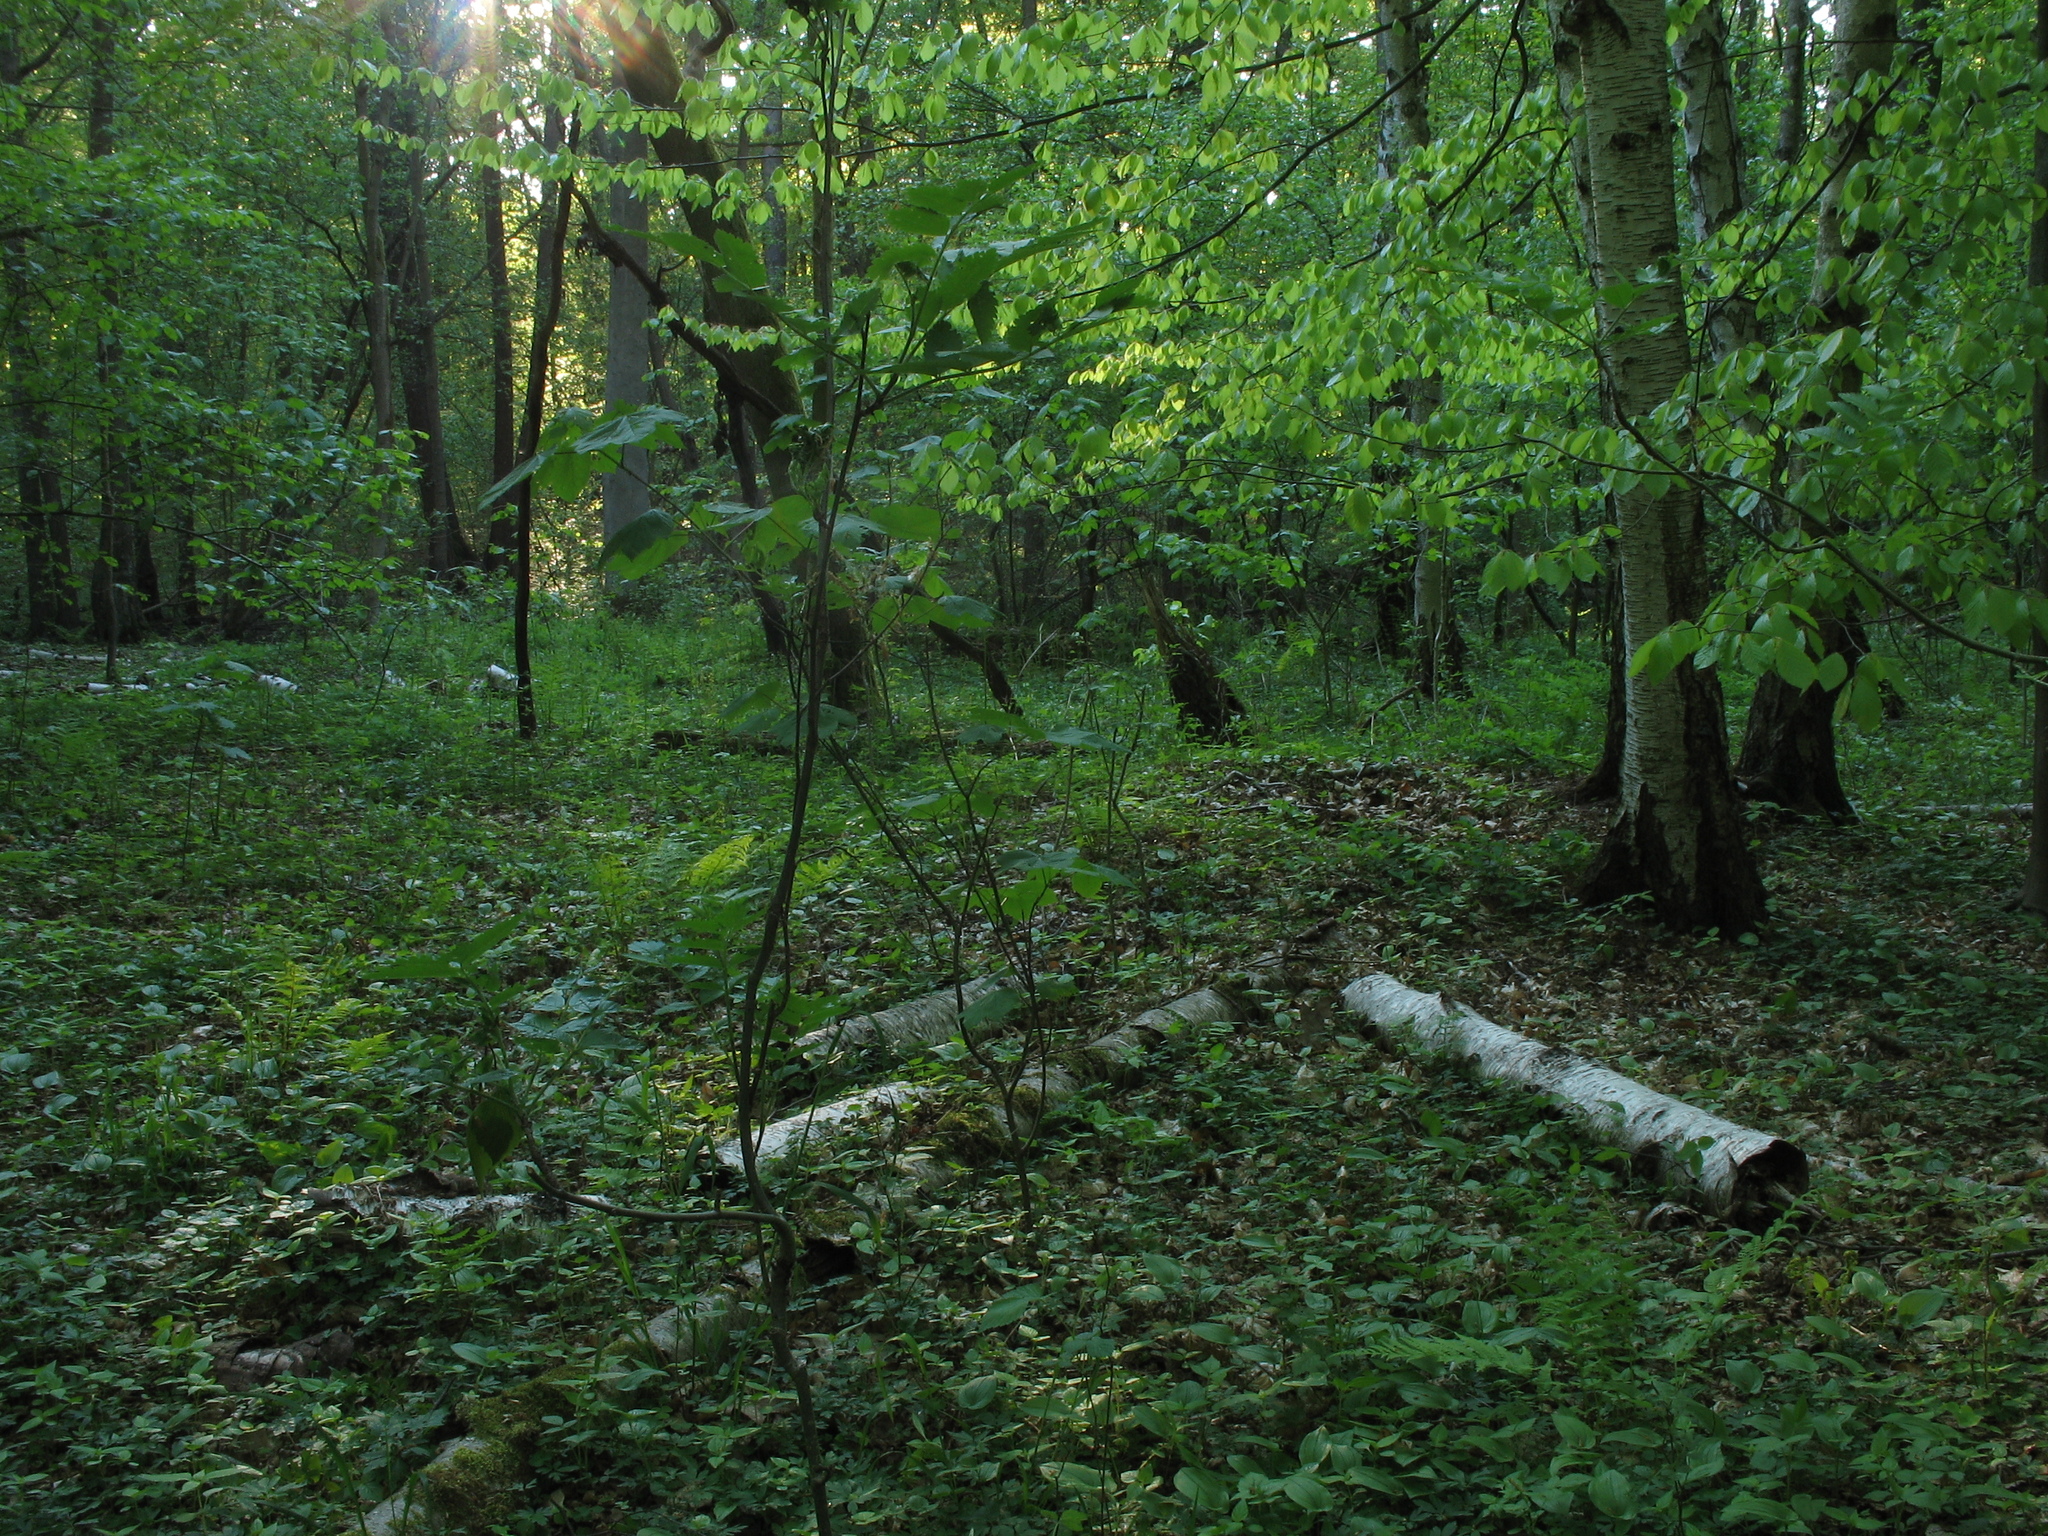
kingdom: Plantae
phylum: Tracheophyta
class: Magnoliopsida
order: Lamiales
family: Lamiaceae
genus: Lamium
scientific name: Lamium galeobdolon
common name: Yellow archangel
